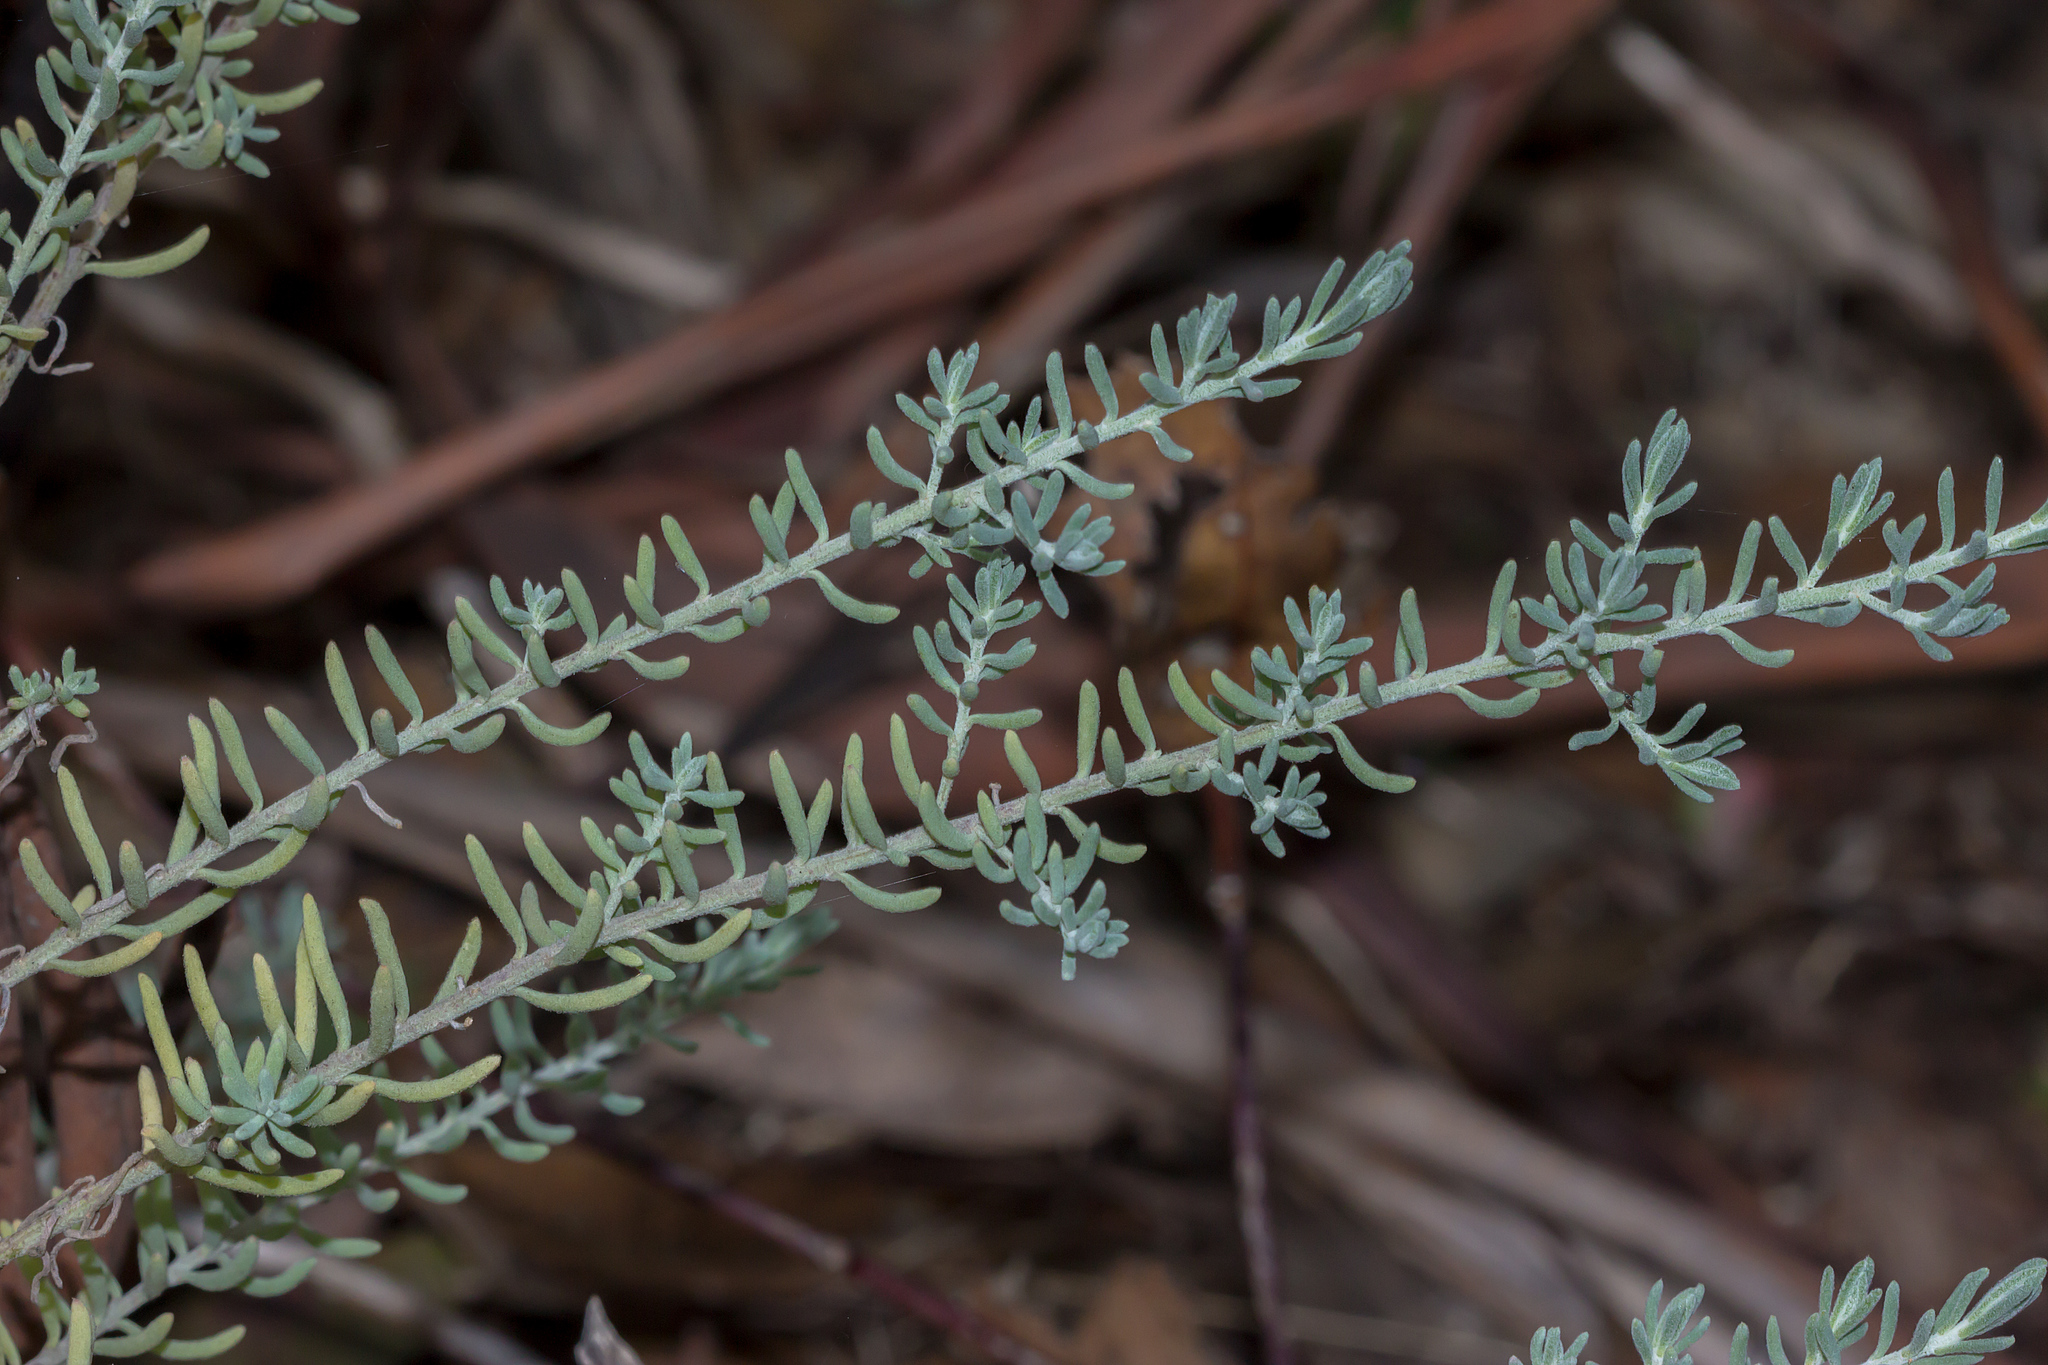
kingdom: Plantae
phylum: Tracheophyta
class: Magnoliopsida
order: Caryophyllales
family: Amaranthaceae
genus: Enchylaena
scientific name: Enchylaena tomentosa
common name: Ruby saltbush
